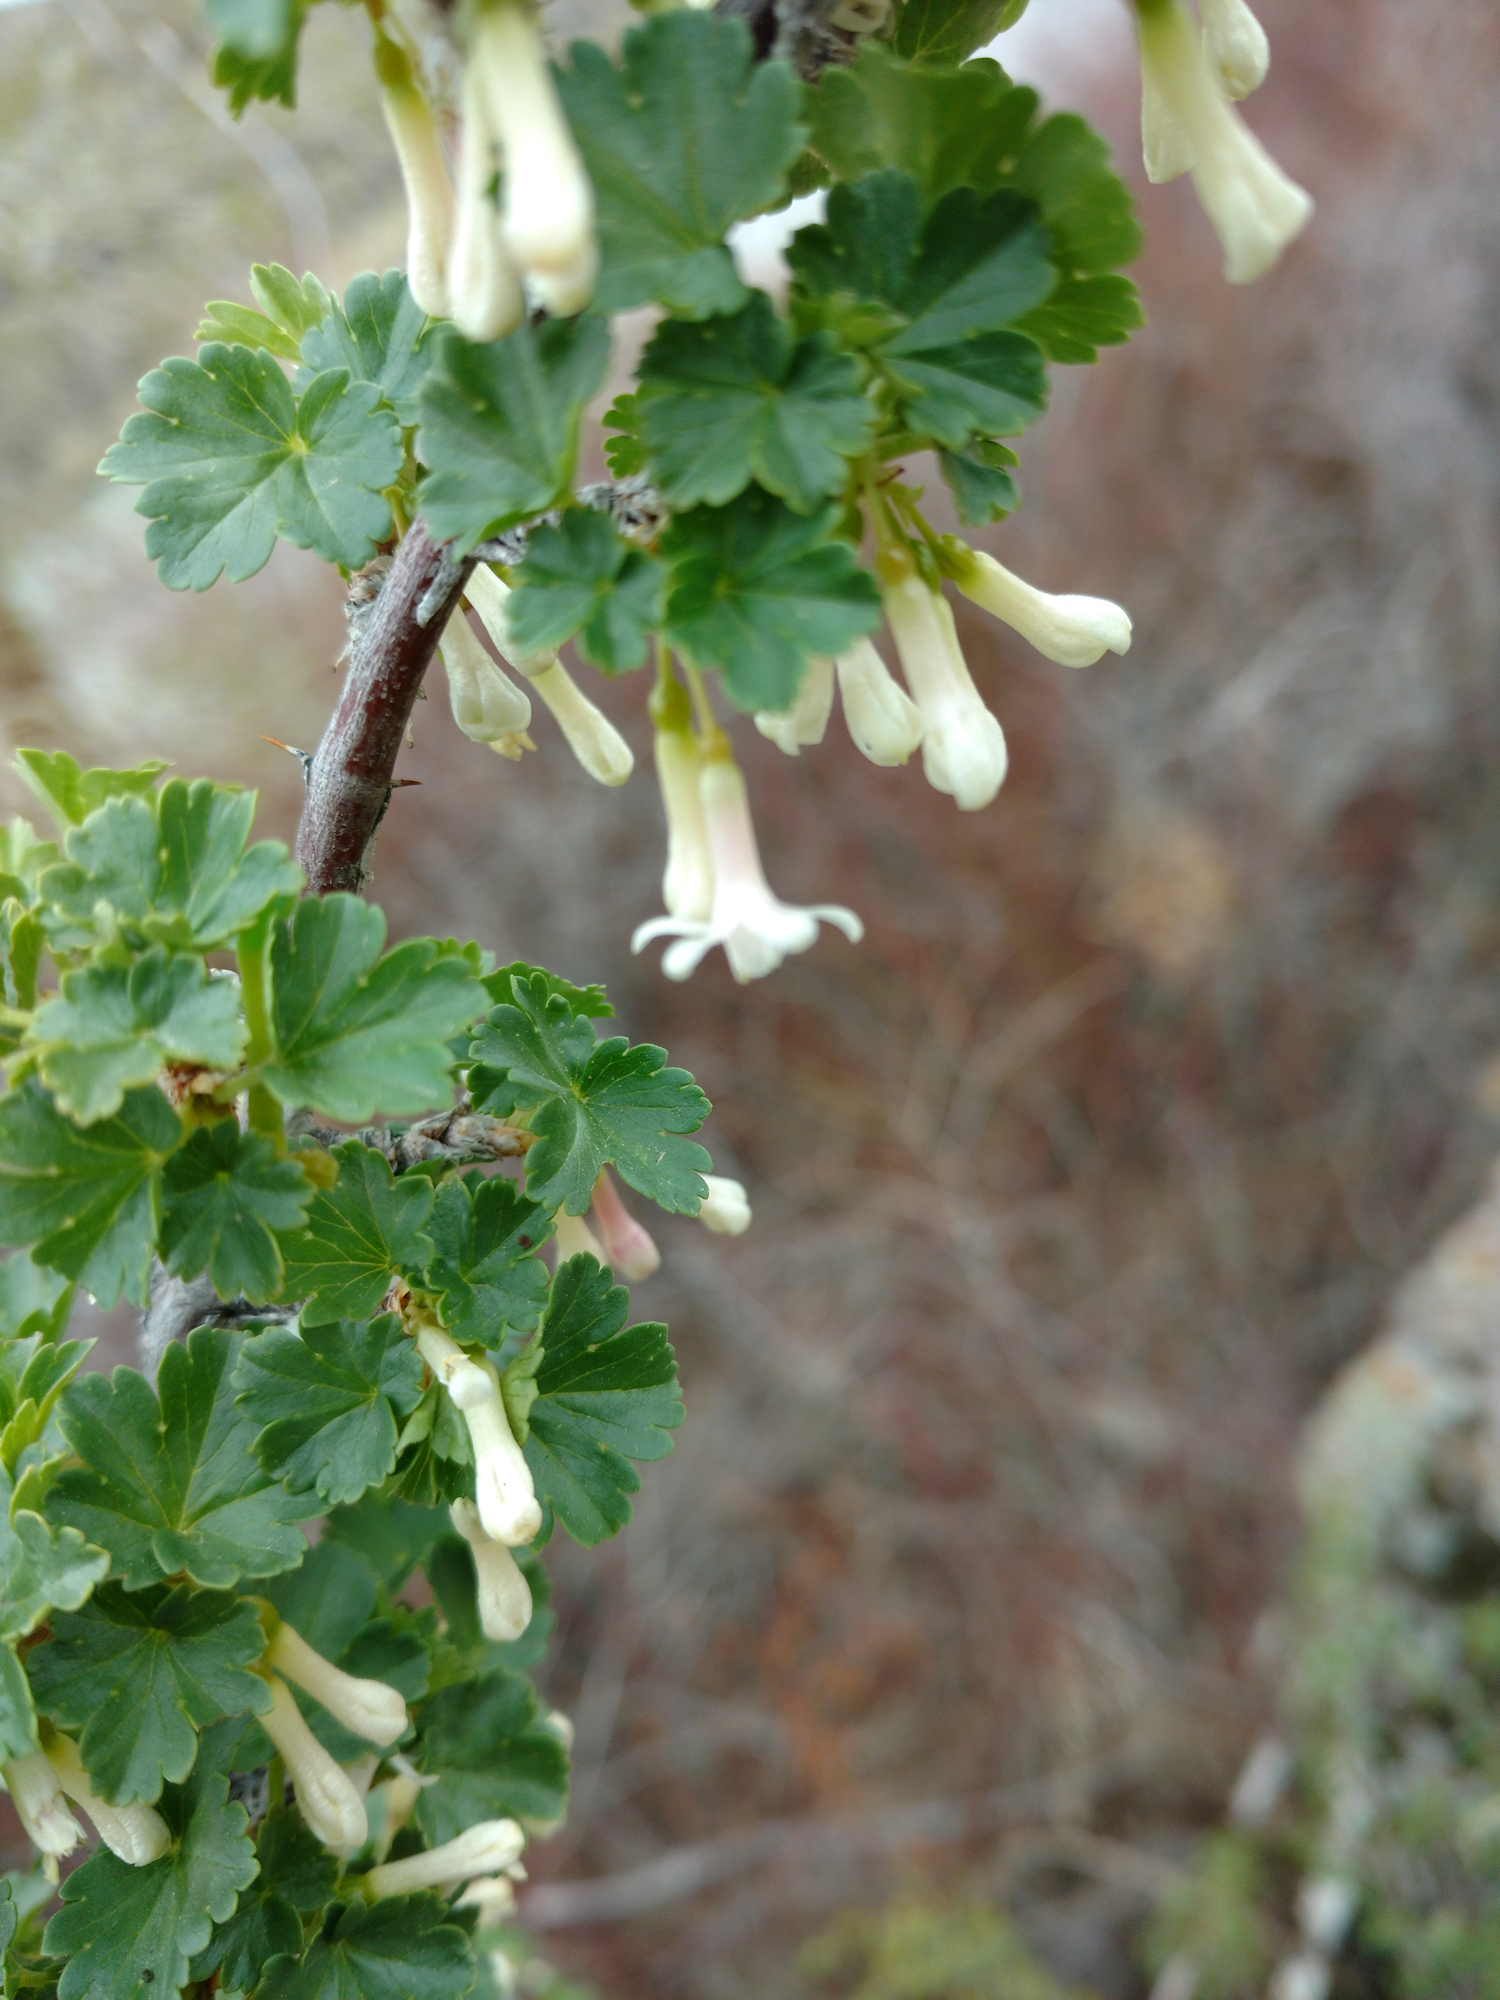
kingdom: Plantae
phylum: Tracheophyta
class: Magnoliopsida
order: Saxifragales
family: Grossulariaceae
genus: Ribes
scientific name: Ribes oxyacanthoides
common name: Northern gooseberry
